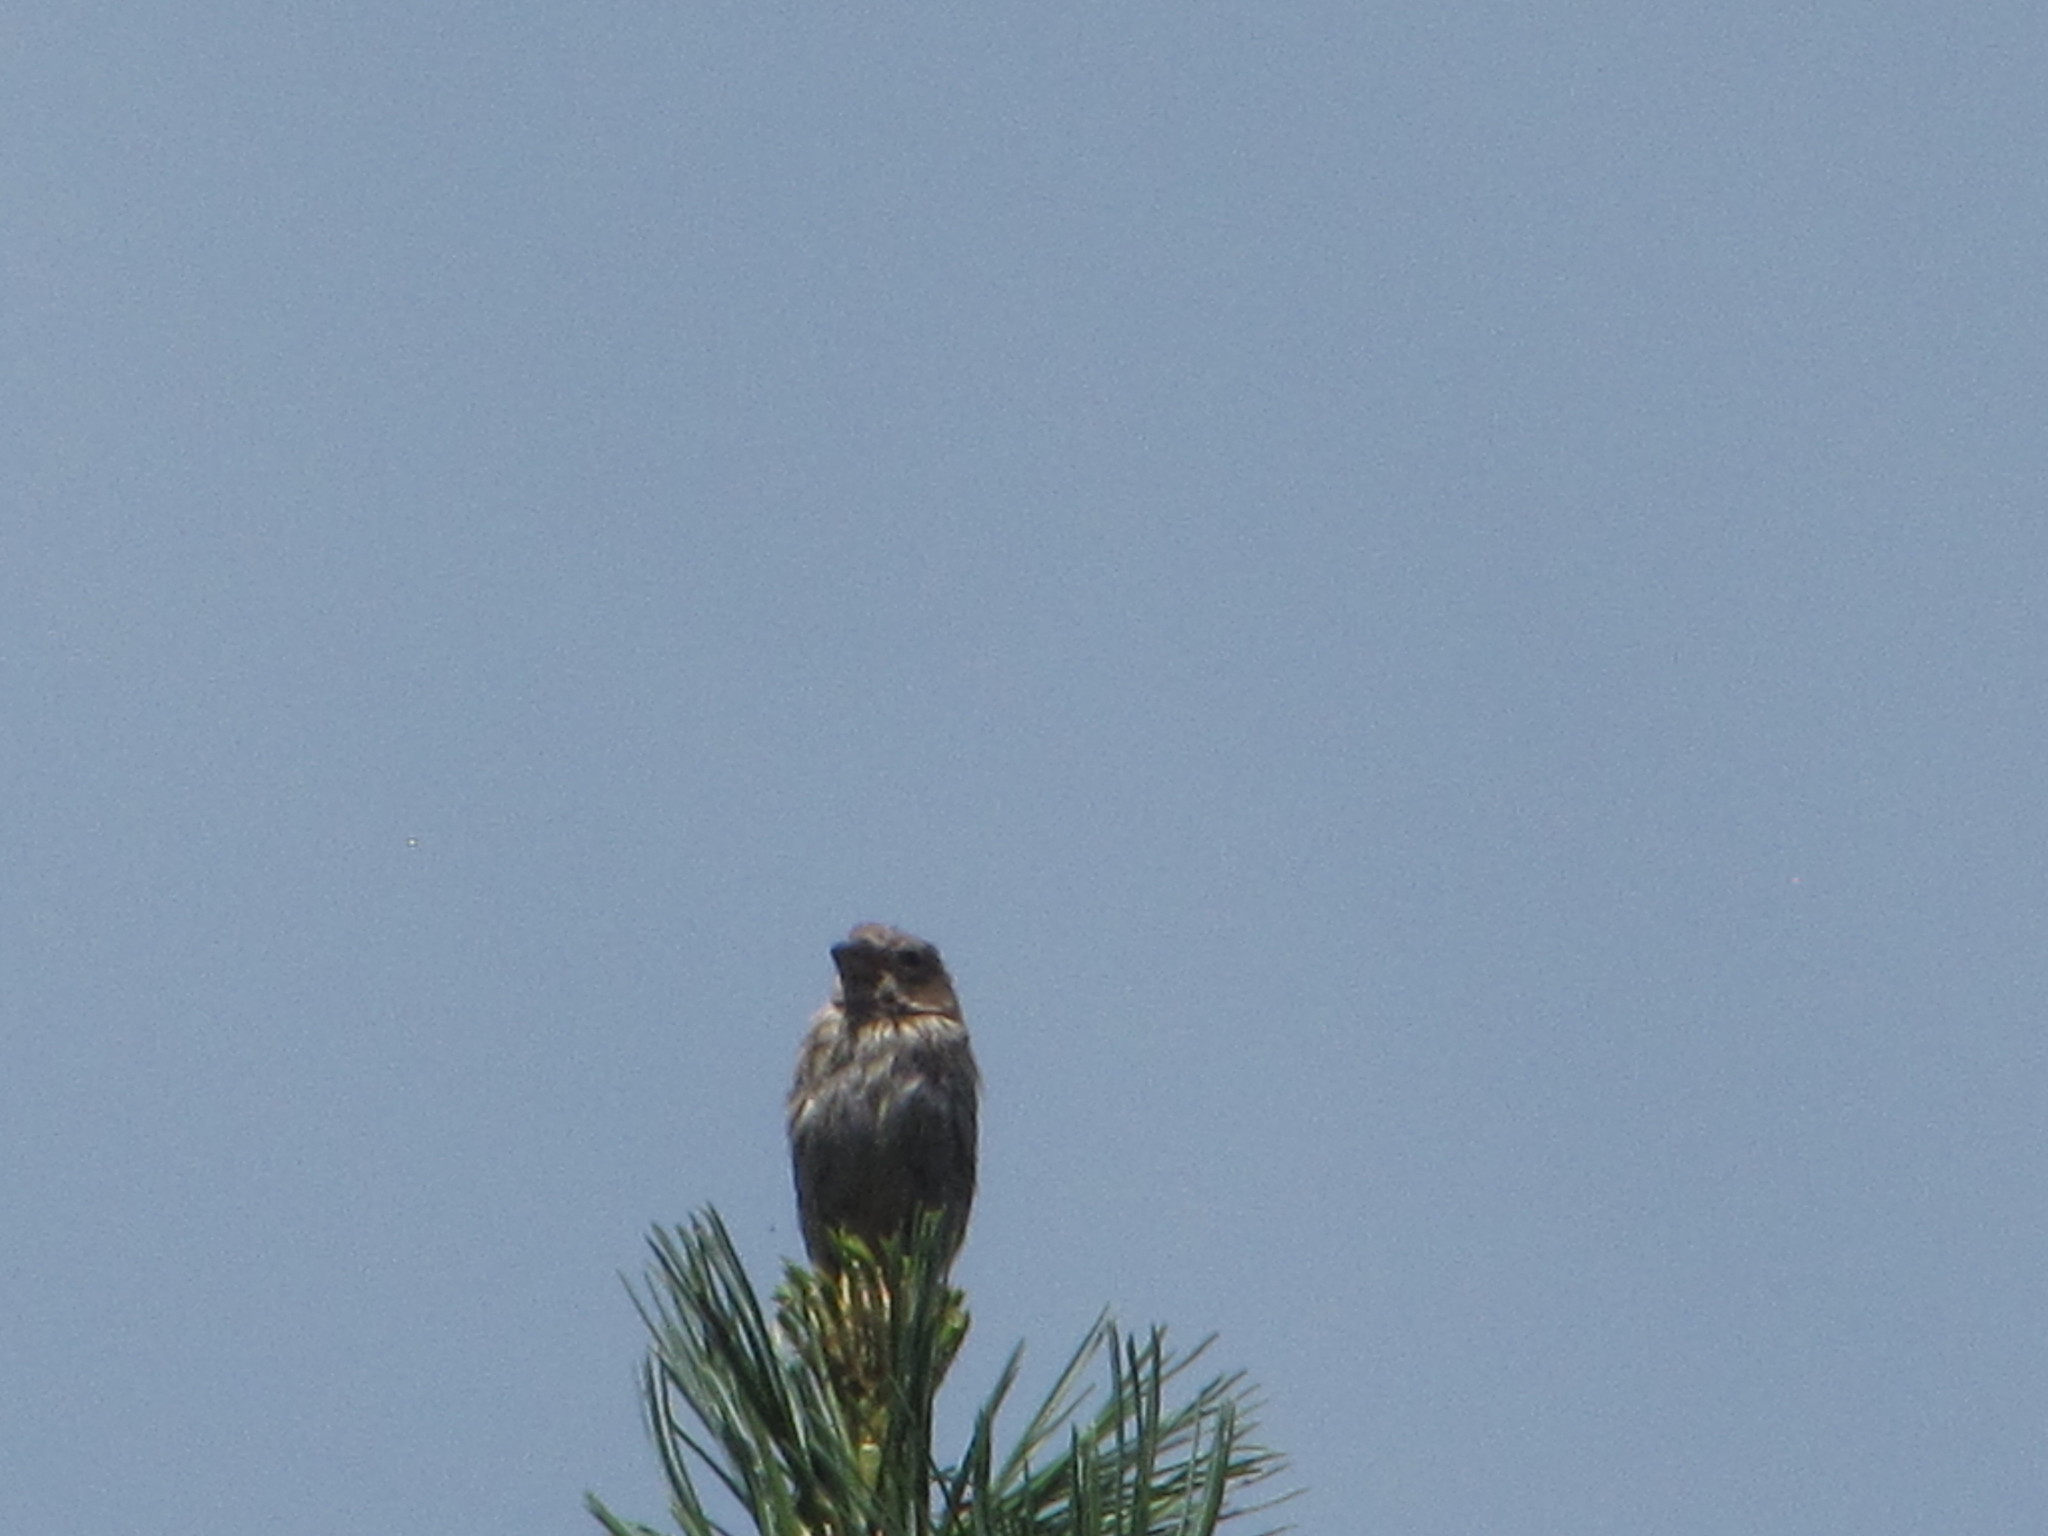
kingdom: Animalia
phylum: Chordata
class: Aves
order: Passeriformes
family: Fringillidae
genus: Haemorhous
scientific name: Haemorhous mexicanus
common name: House finch
